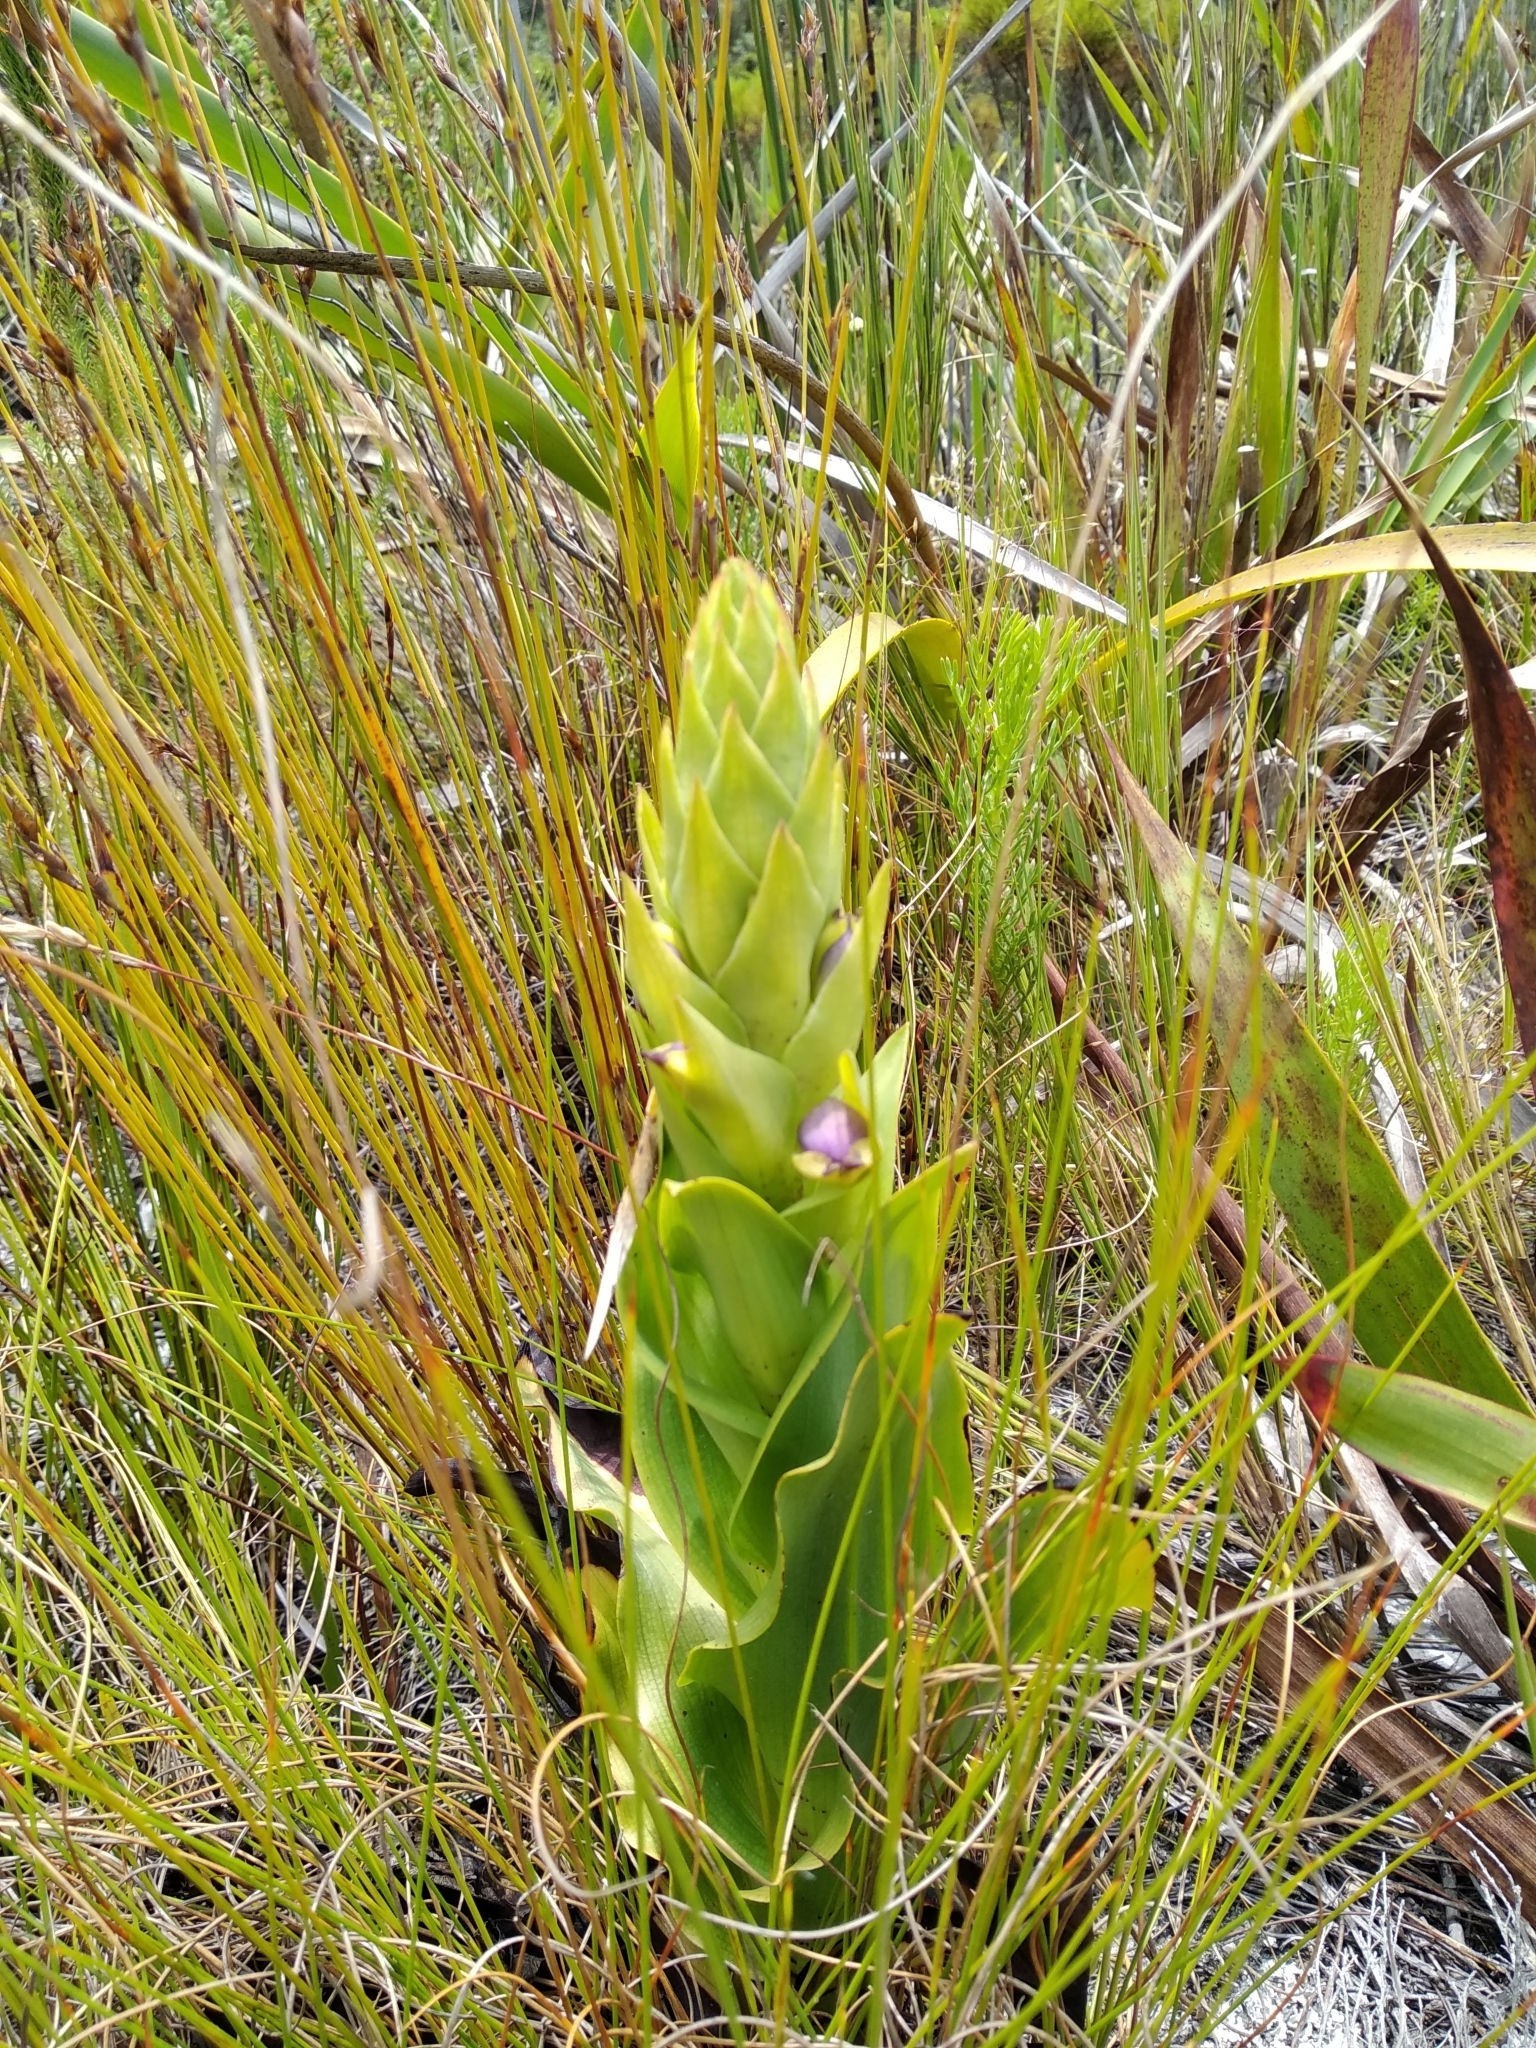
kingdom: Plantae
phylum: Tracheophyta
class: Liliopsida
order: Asparagales
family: Orchidaceae
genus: Disa
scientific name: Disa cornuta
